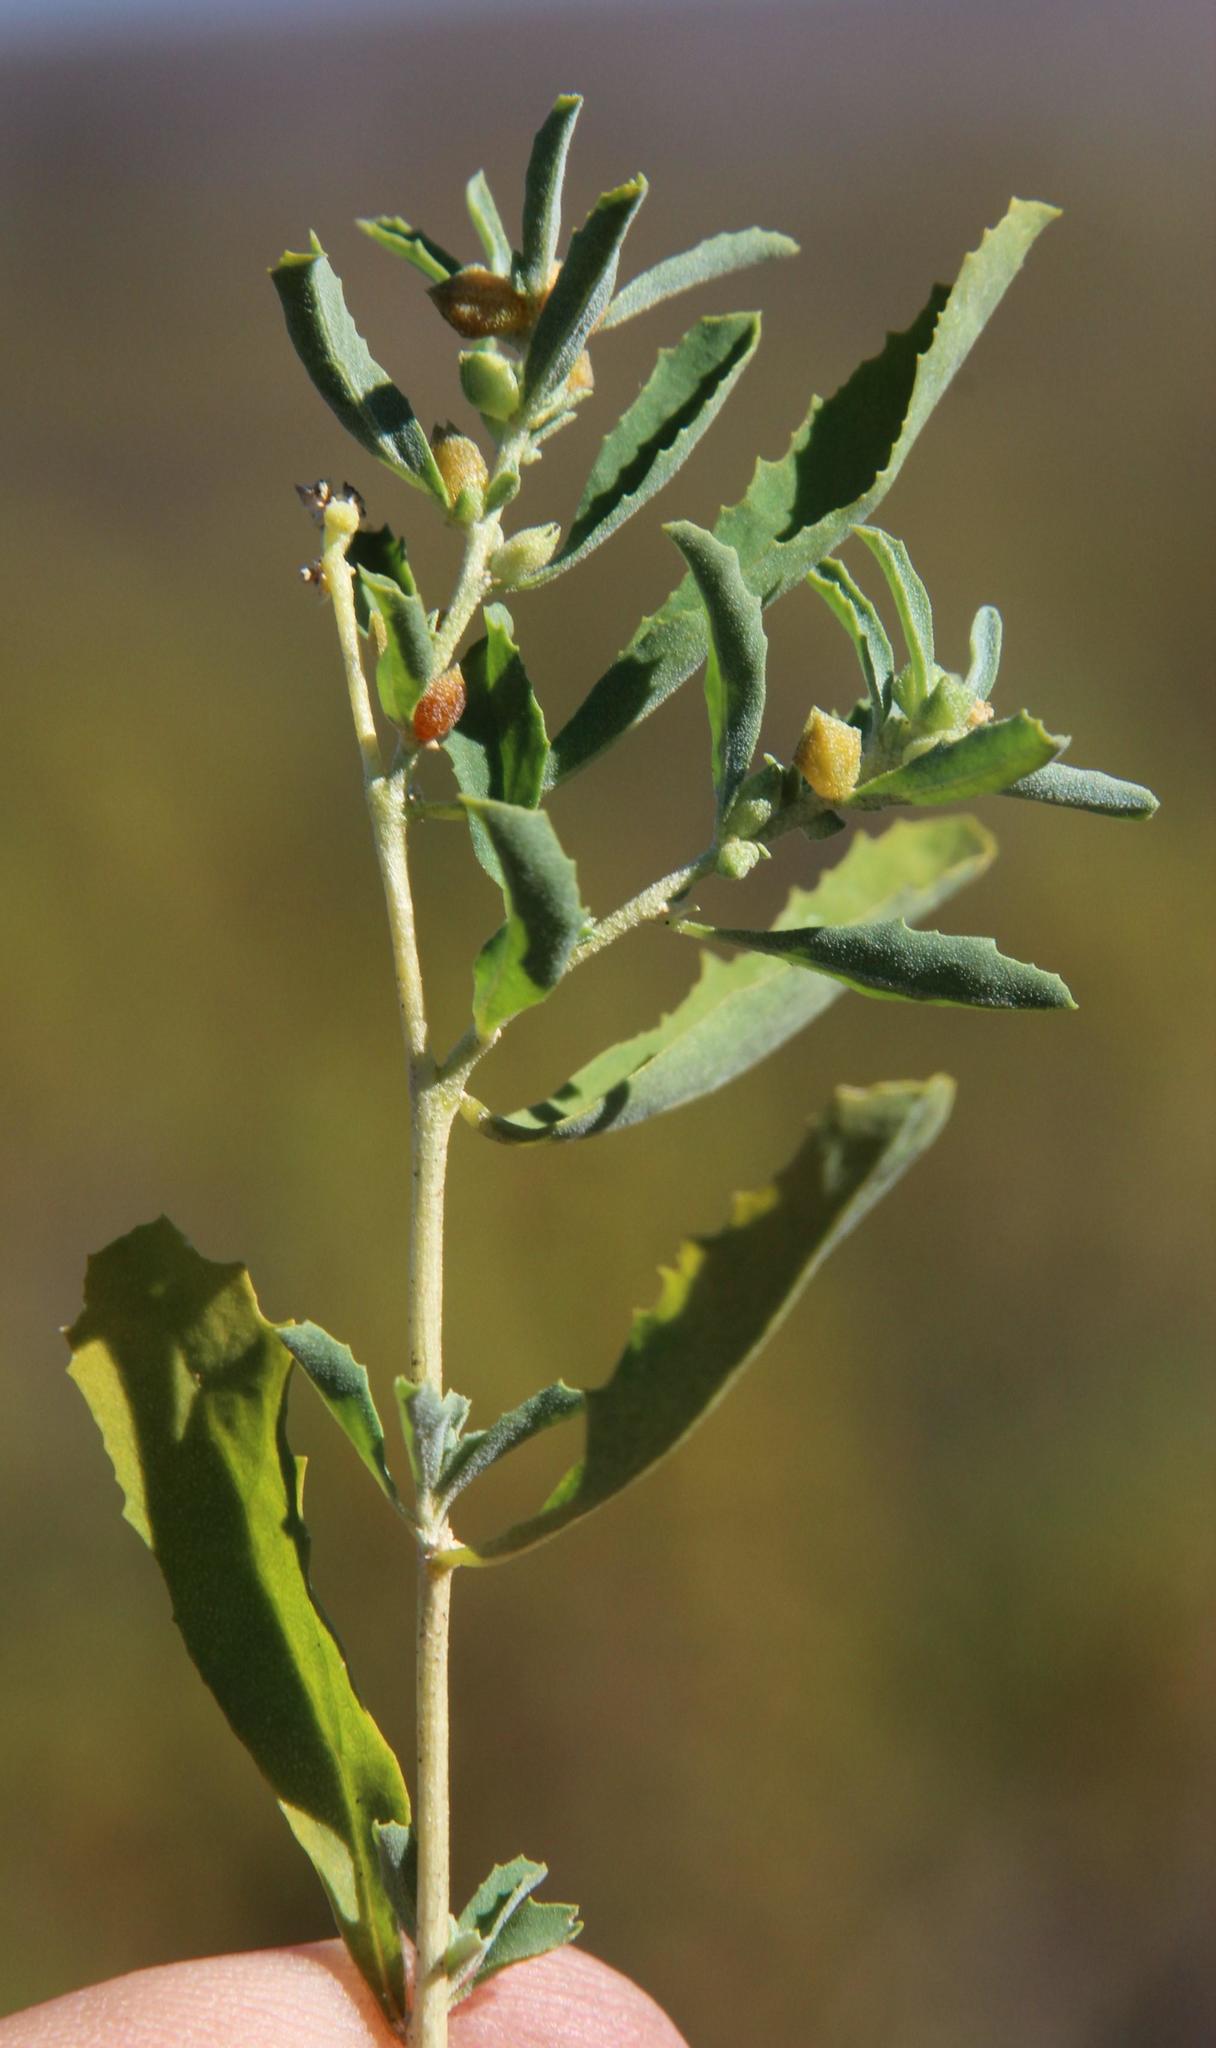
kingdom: Plantae
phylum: Tracheophyta
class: Magnoliopsida
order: Caryophyllales
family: Amaranthaceae
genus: Atriplex
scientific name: Atriplex semibaccata
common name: Australian saltbush
